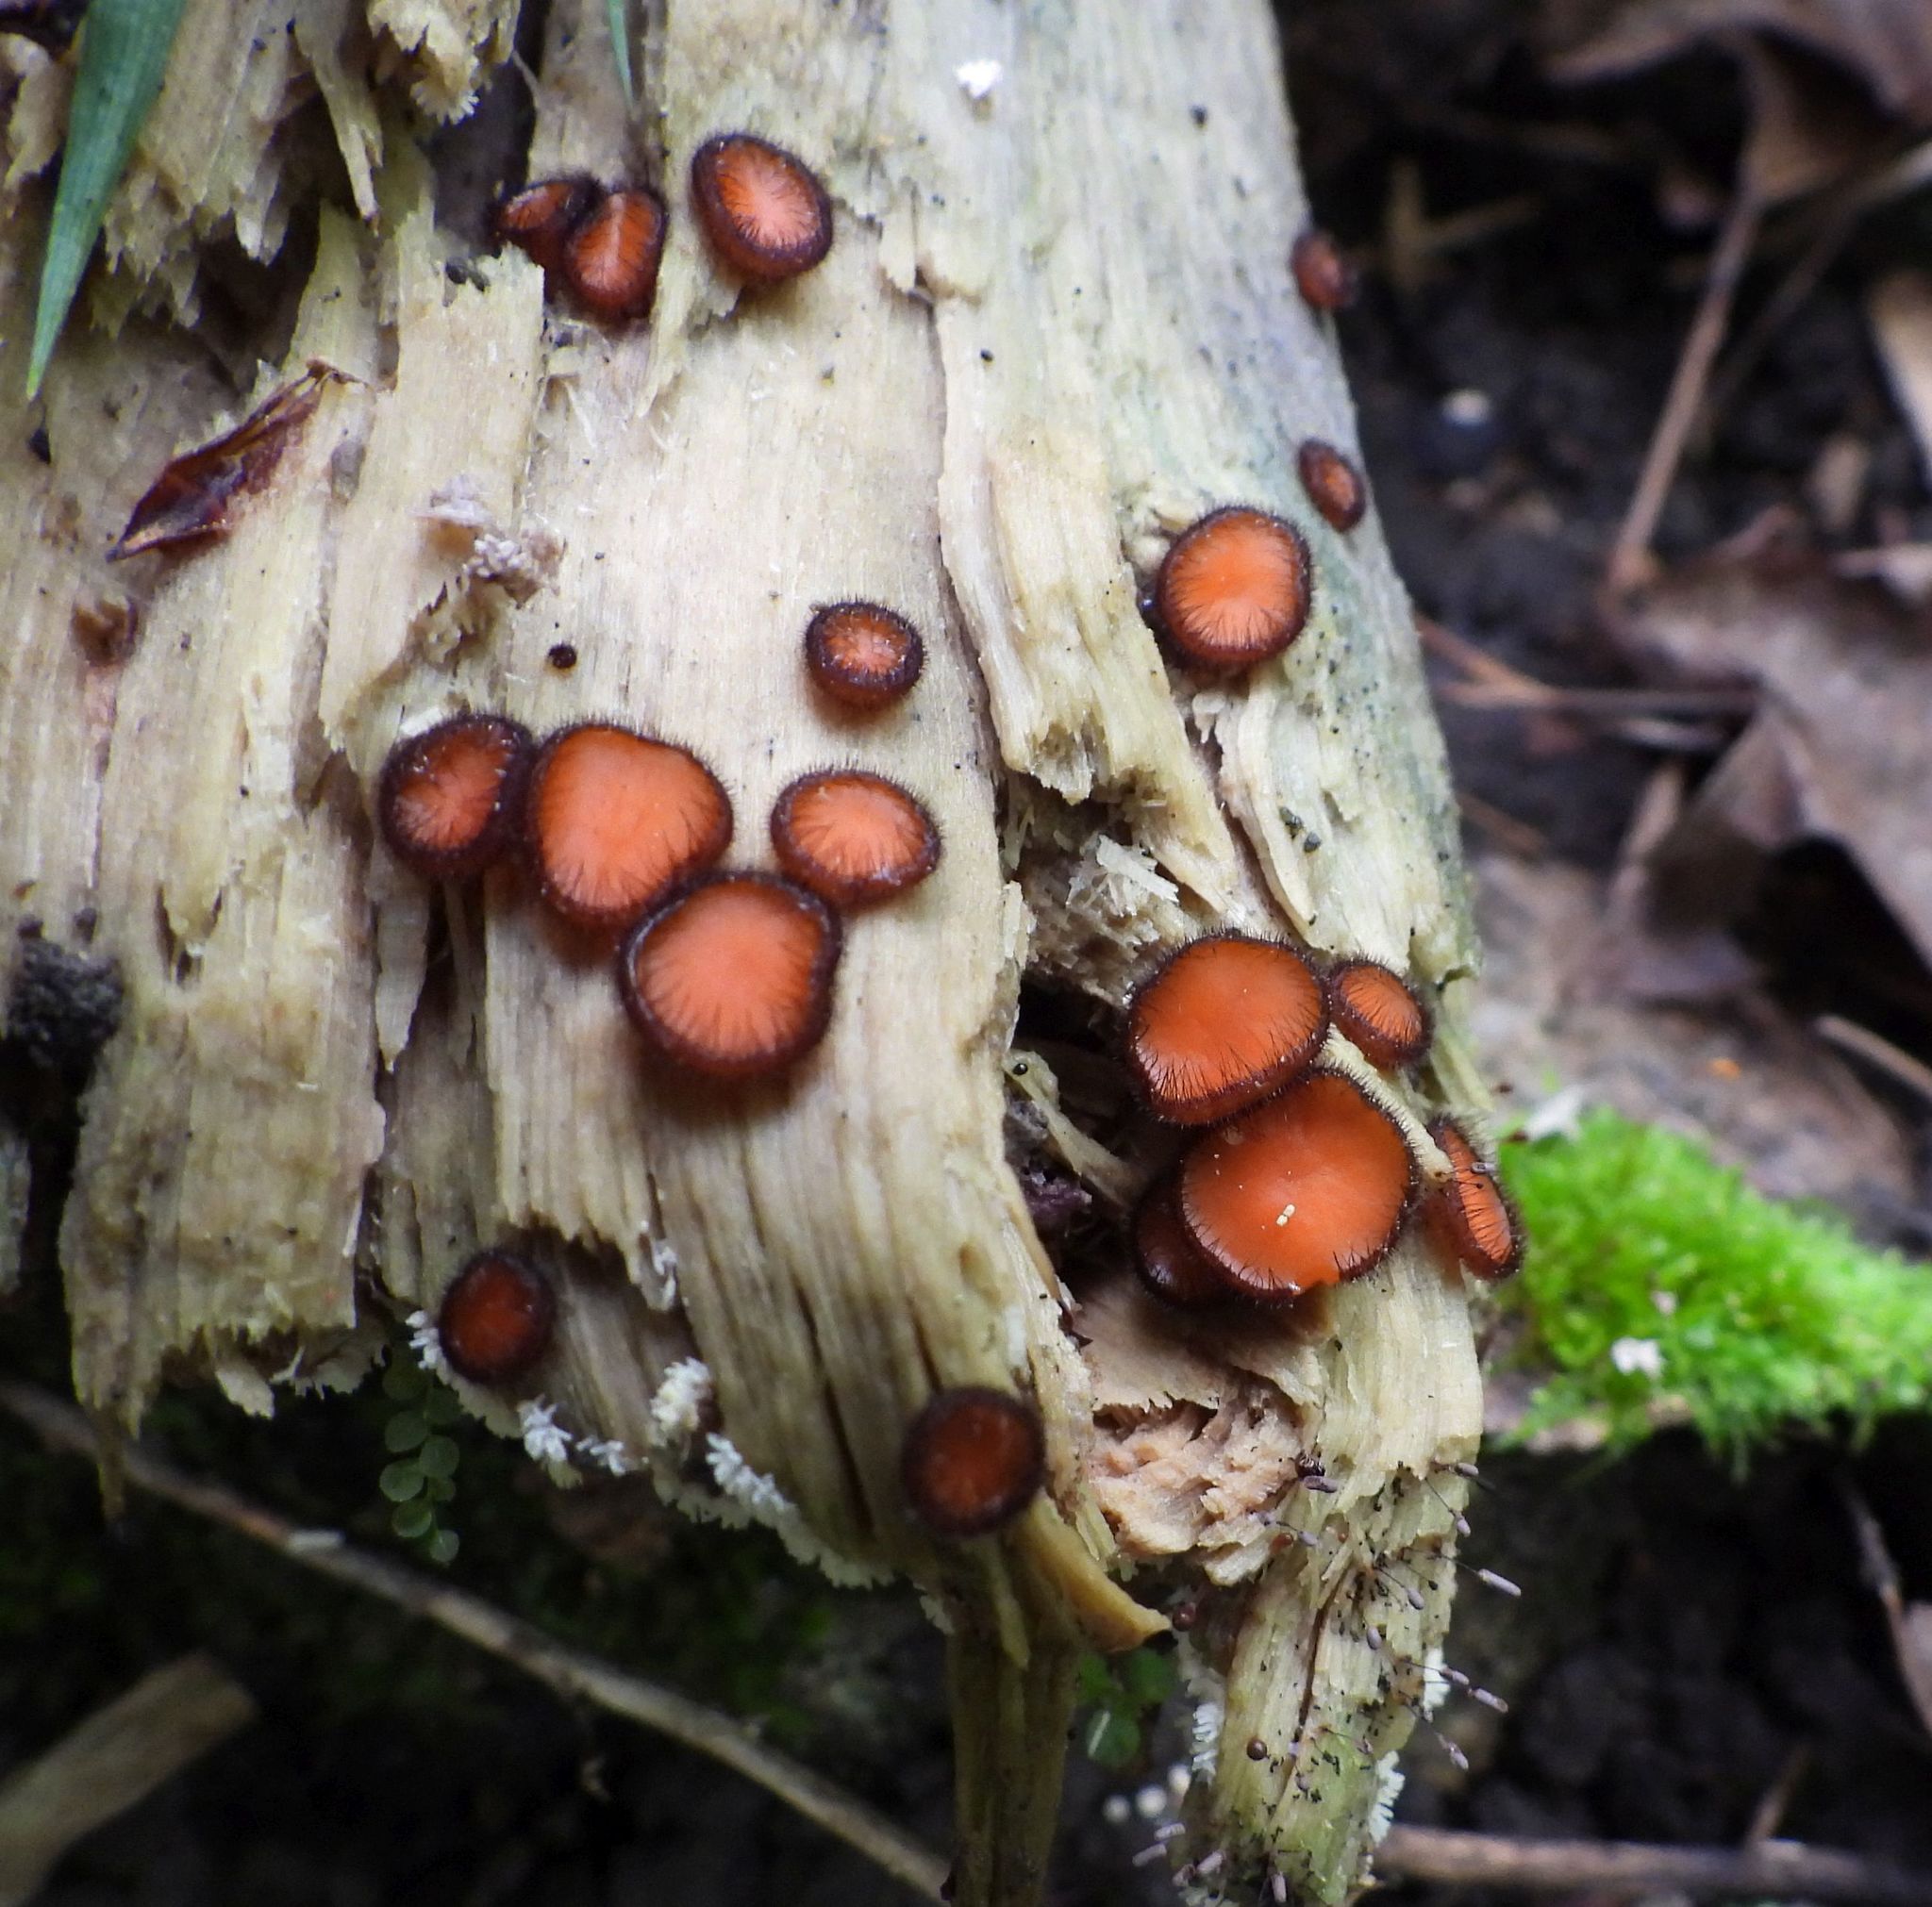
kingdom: Fungi
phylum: Ascomycota
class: Pezizomycetes
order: Pezizales
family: Pyronemataceae
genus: Scutellinia
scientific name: Scutellinia
